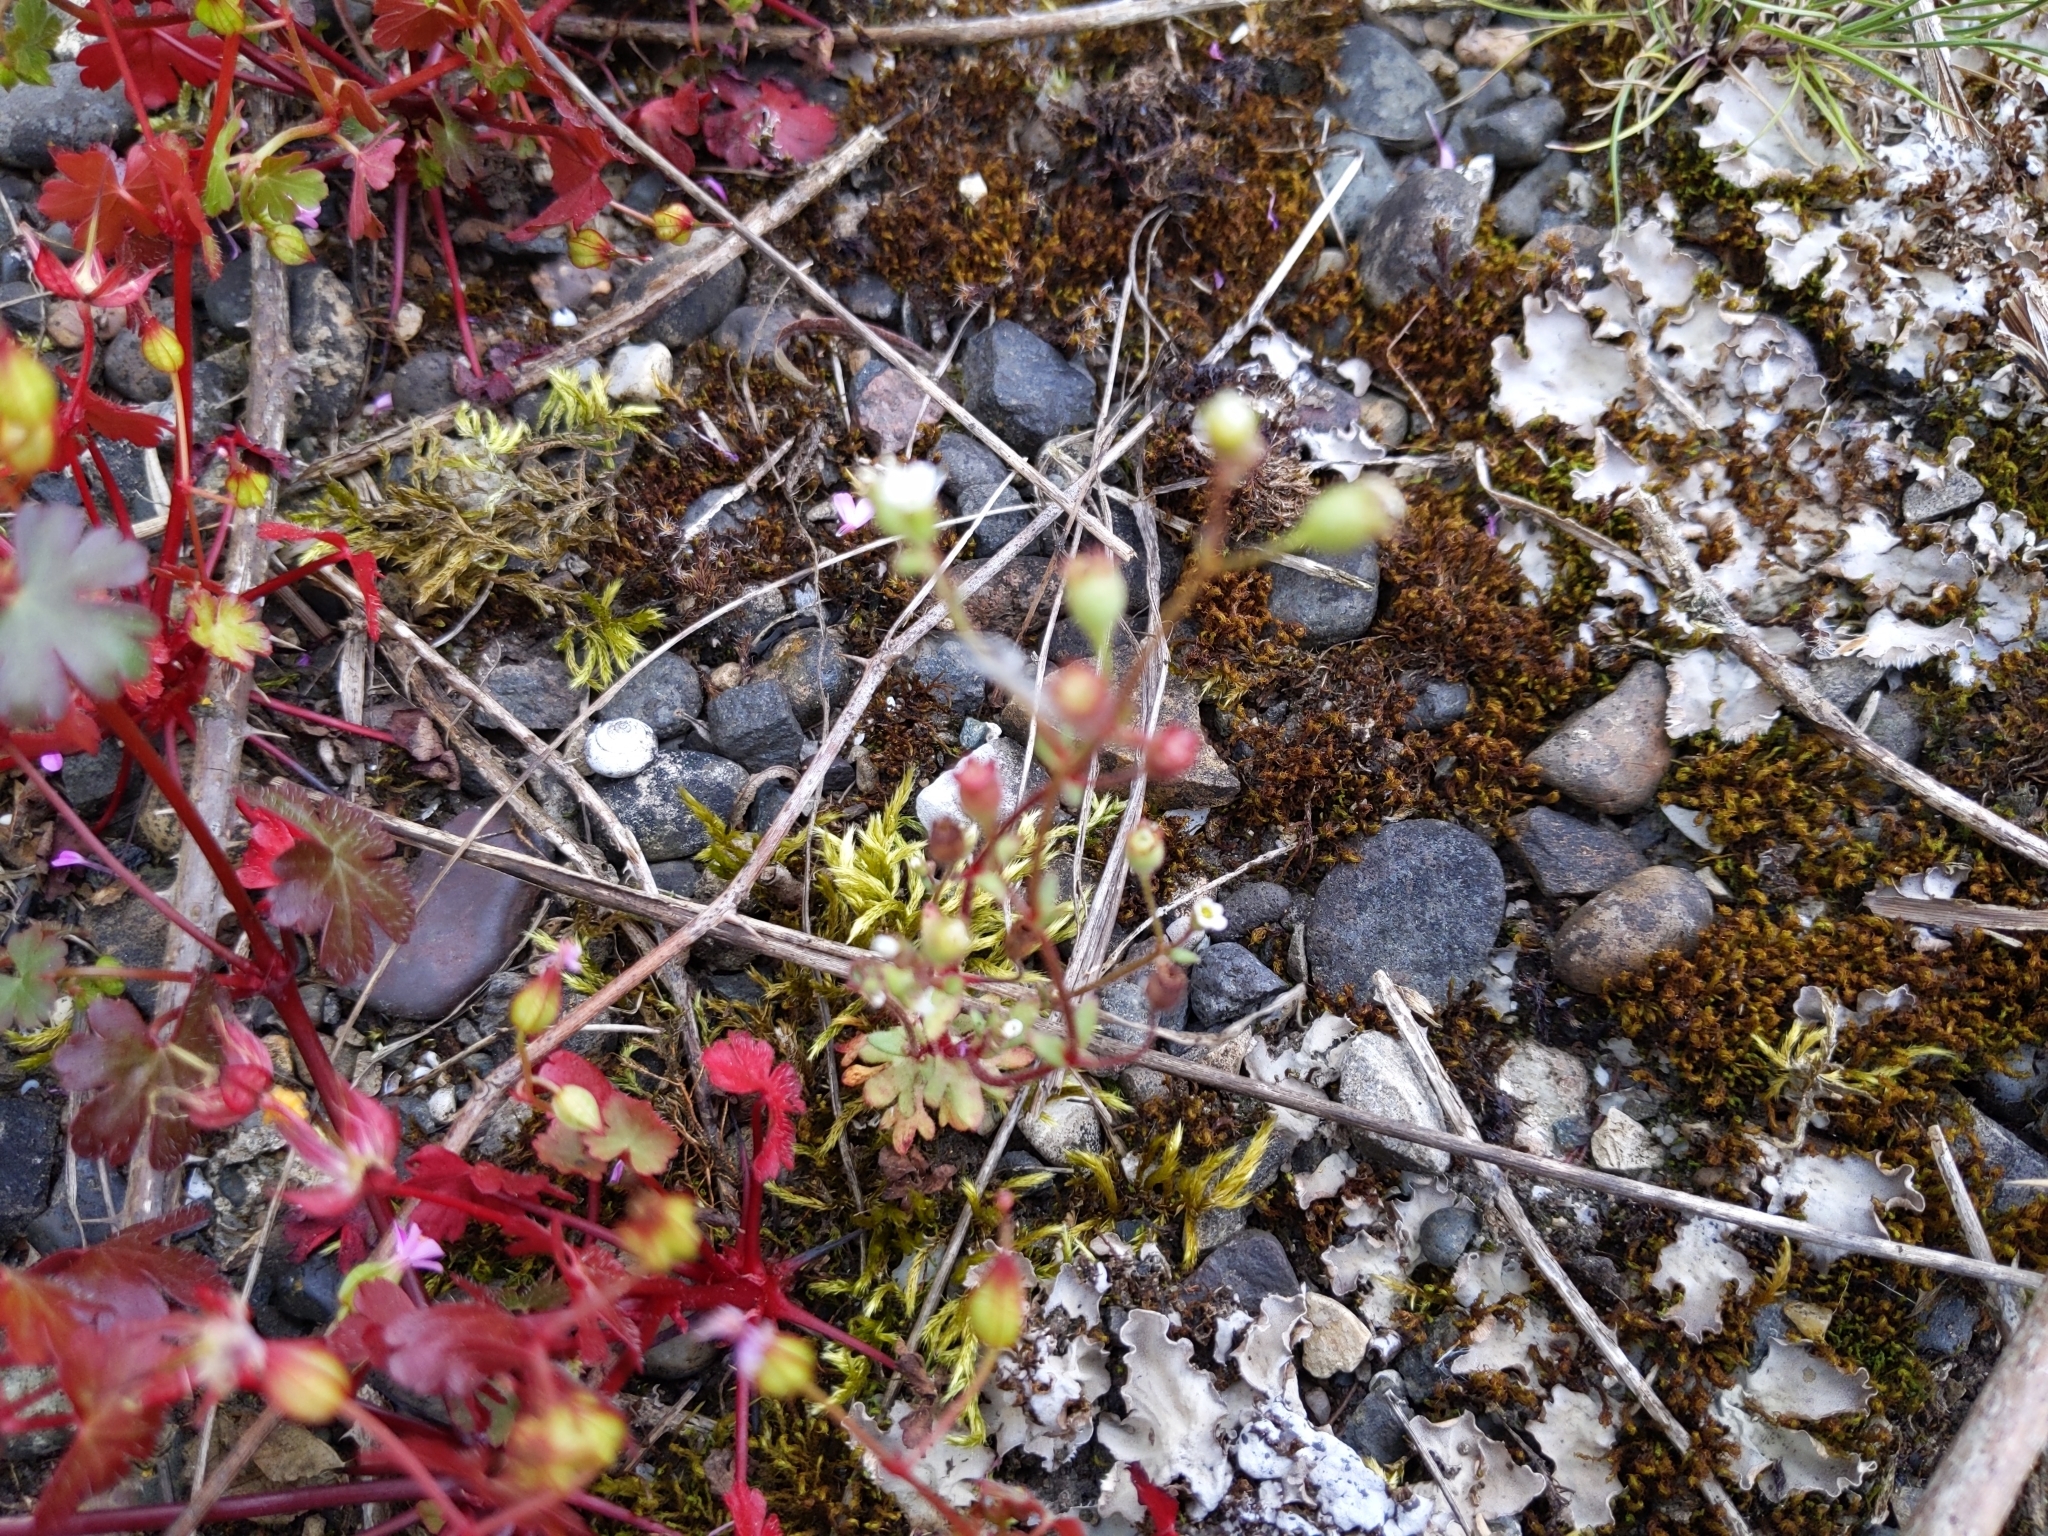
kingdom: Plantae
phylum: Tracheophyta
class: Magnoliopsida
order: Saxifragales
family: Saxifragaceae
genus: Saxifraga
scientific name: Saxifraga tridactylites
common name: Rue-leaved saxifrage
